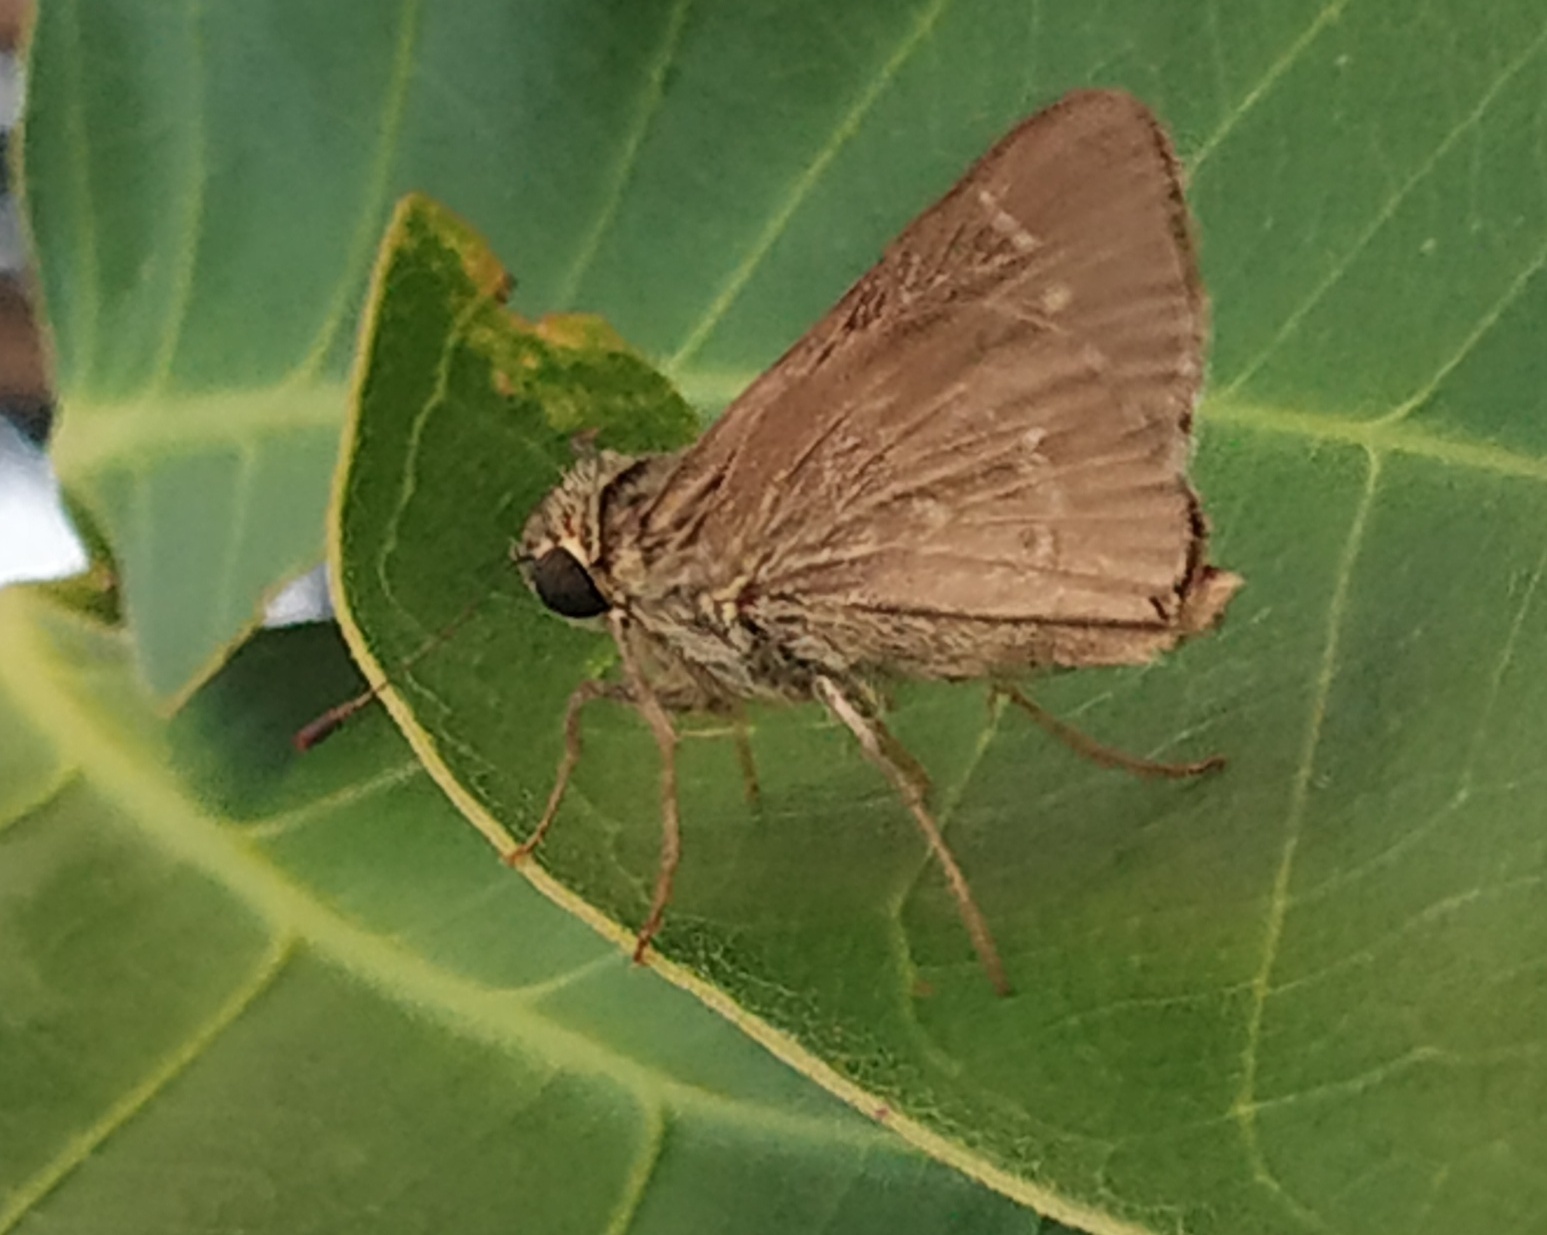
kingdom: Animalia
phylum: Arthropoda
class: Insecta
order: Lepidoptera
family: Hesperiidae
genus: Parnara
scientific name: Parnara naso
